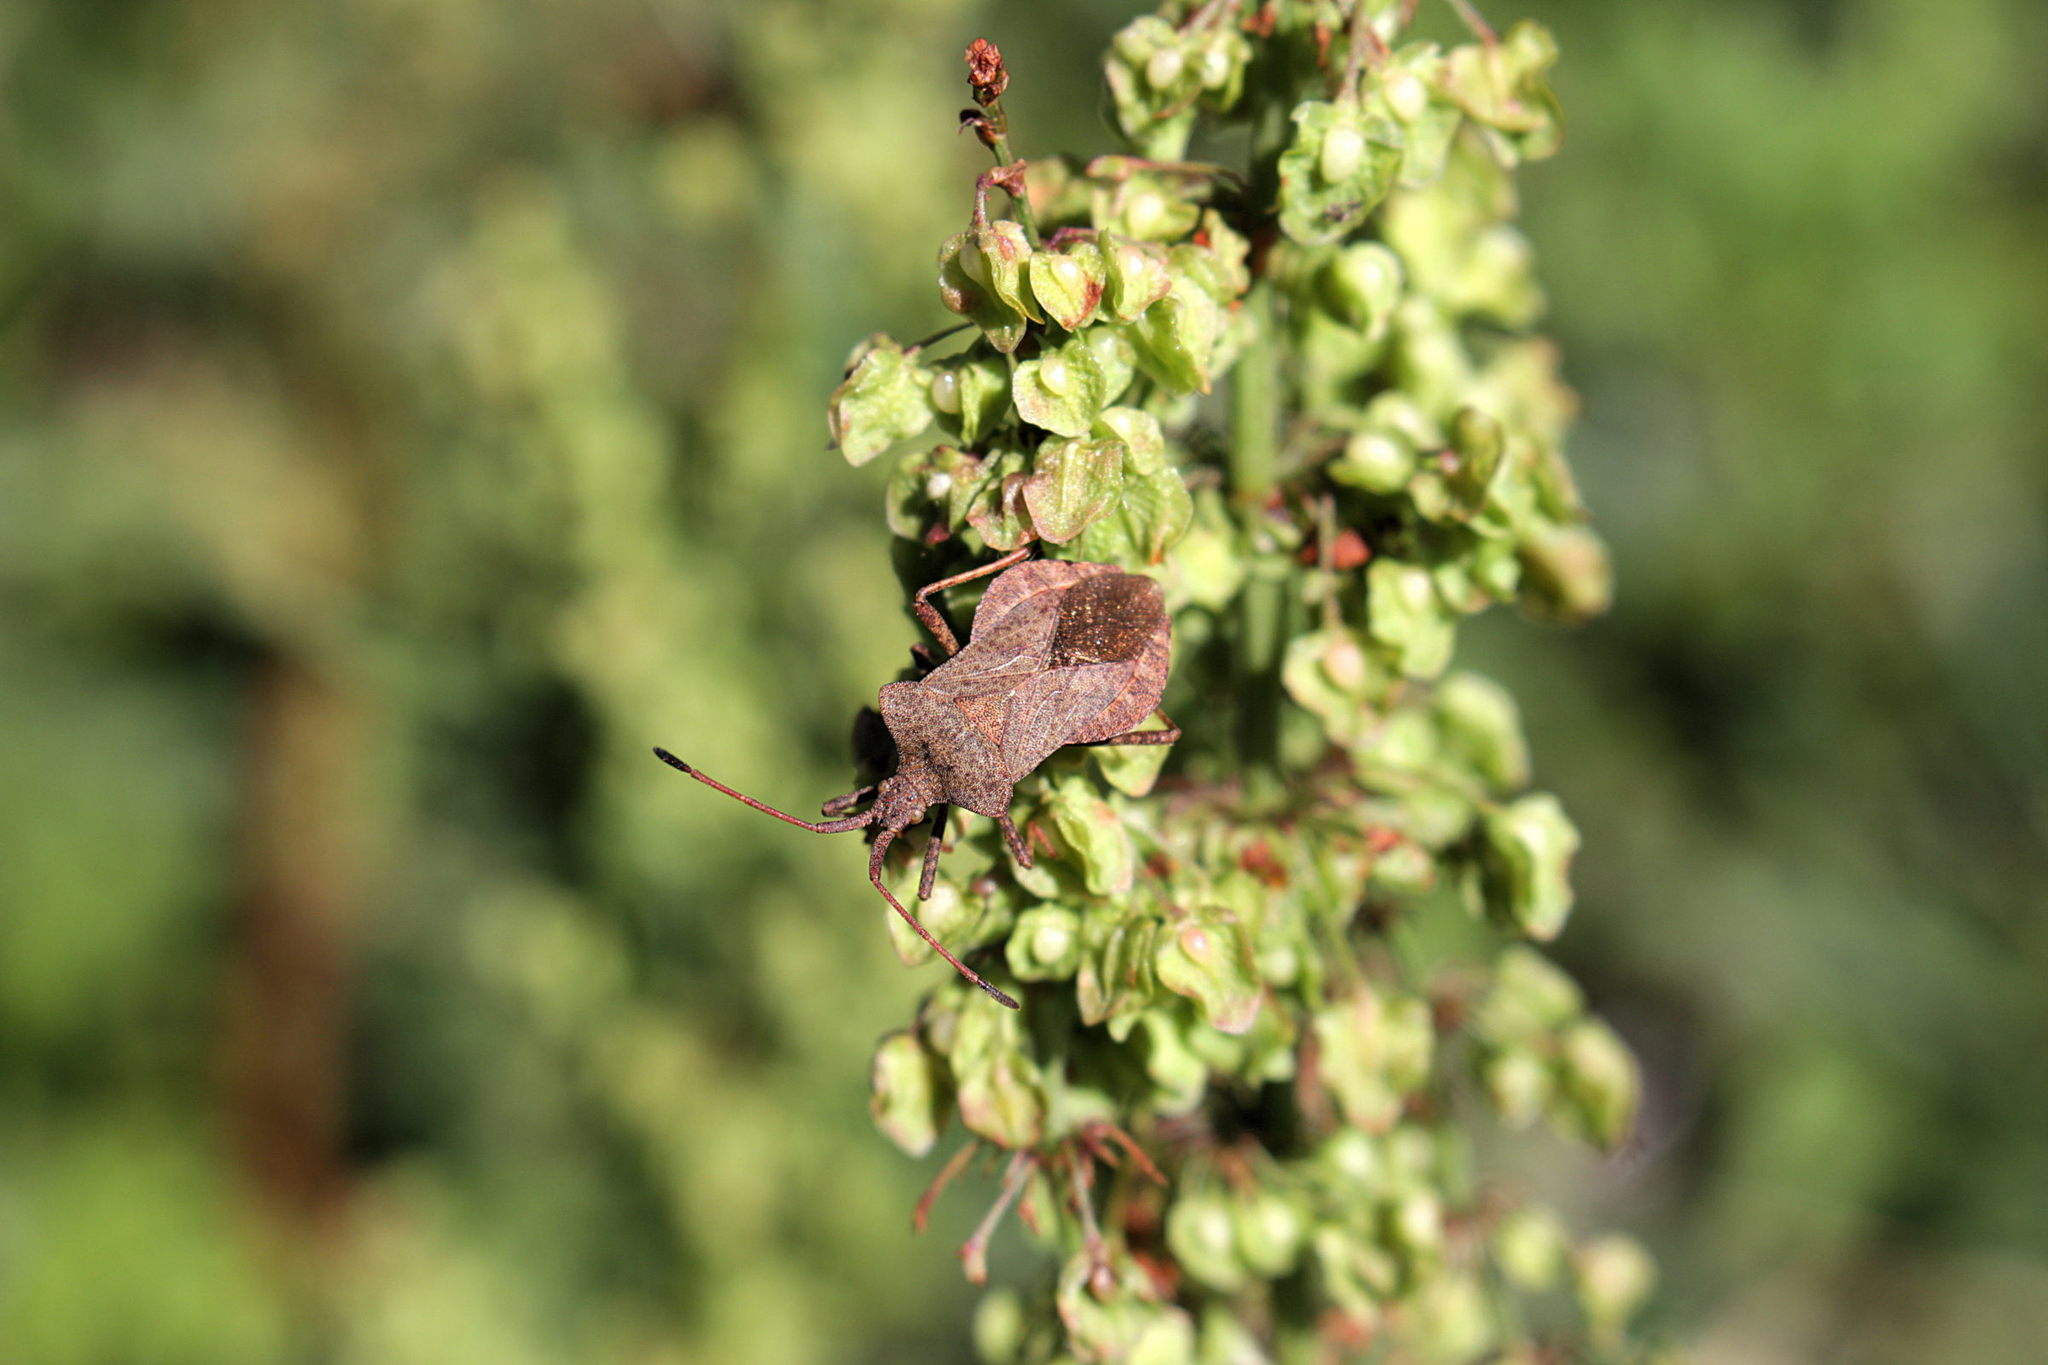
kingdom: Animalia
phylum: Arthropoda
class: Insecta
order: Hemiptera
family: Coreidae
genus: Coreus
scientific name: Coreus marginatus
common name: Dock bug
